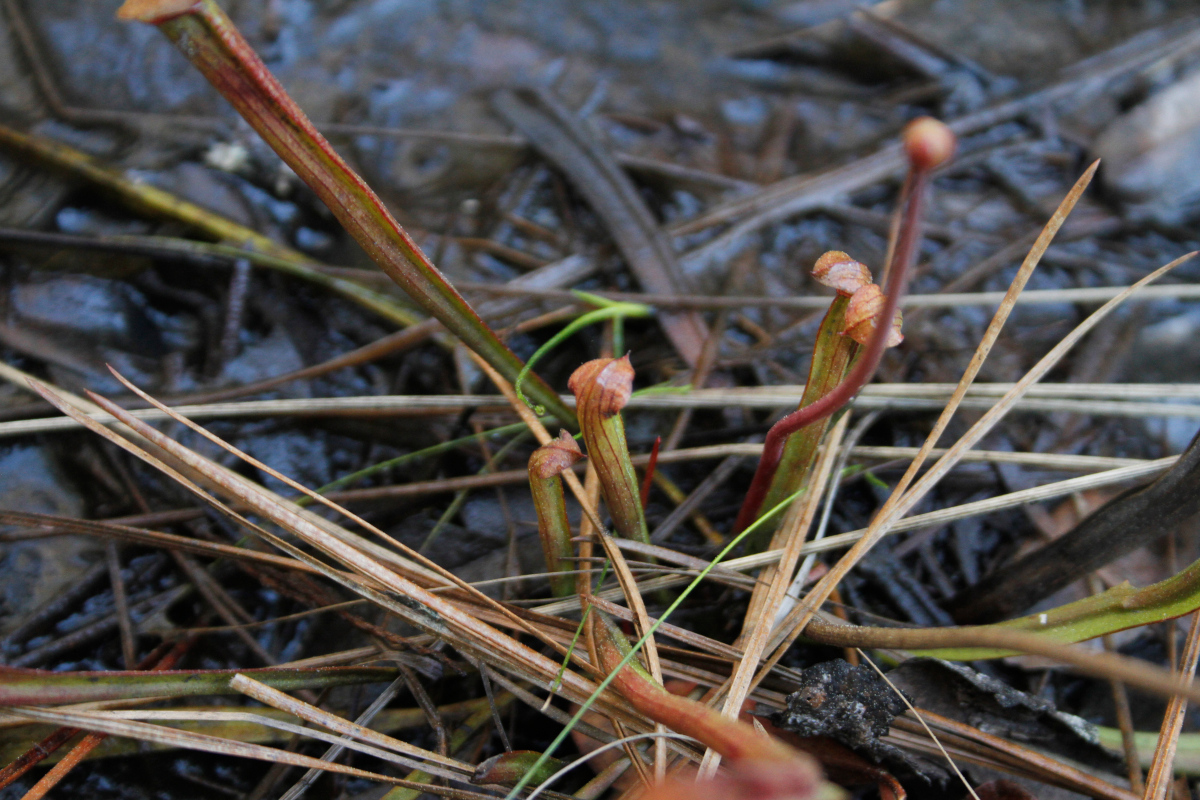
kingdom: Plantae
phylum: Tracheophyta
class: Magnoliopsida
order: Ericales
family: Sarraceniaceae
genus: Sarracenia
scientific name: Sarracenia rubra
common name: Sweet pitcherplant
